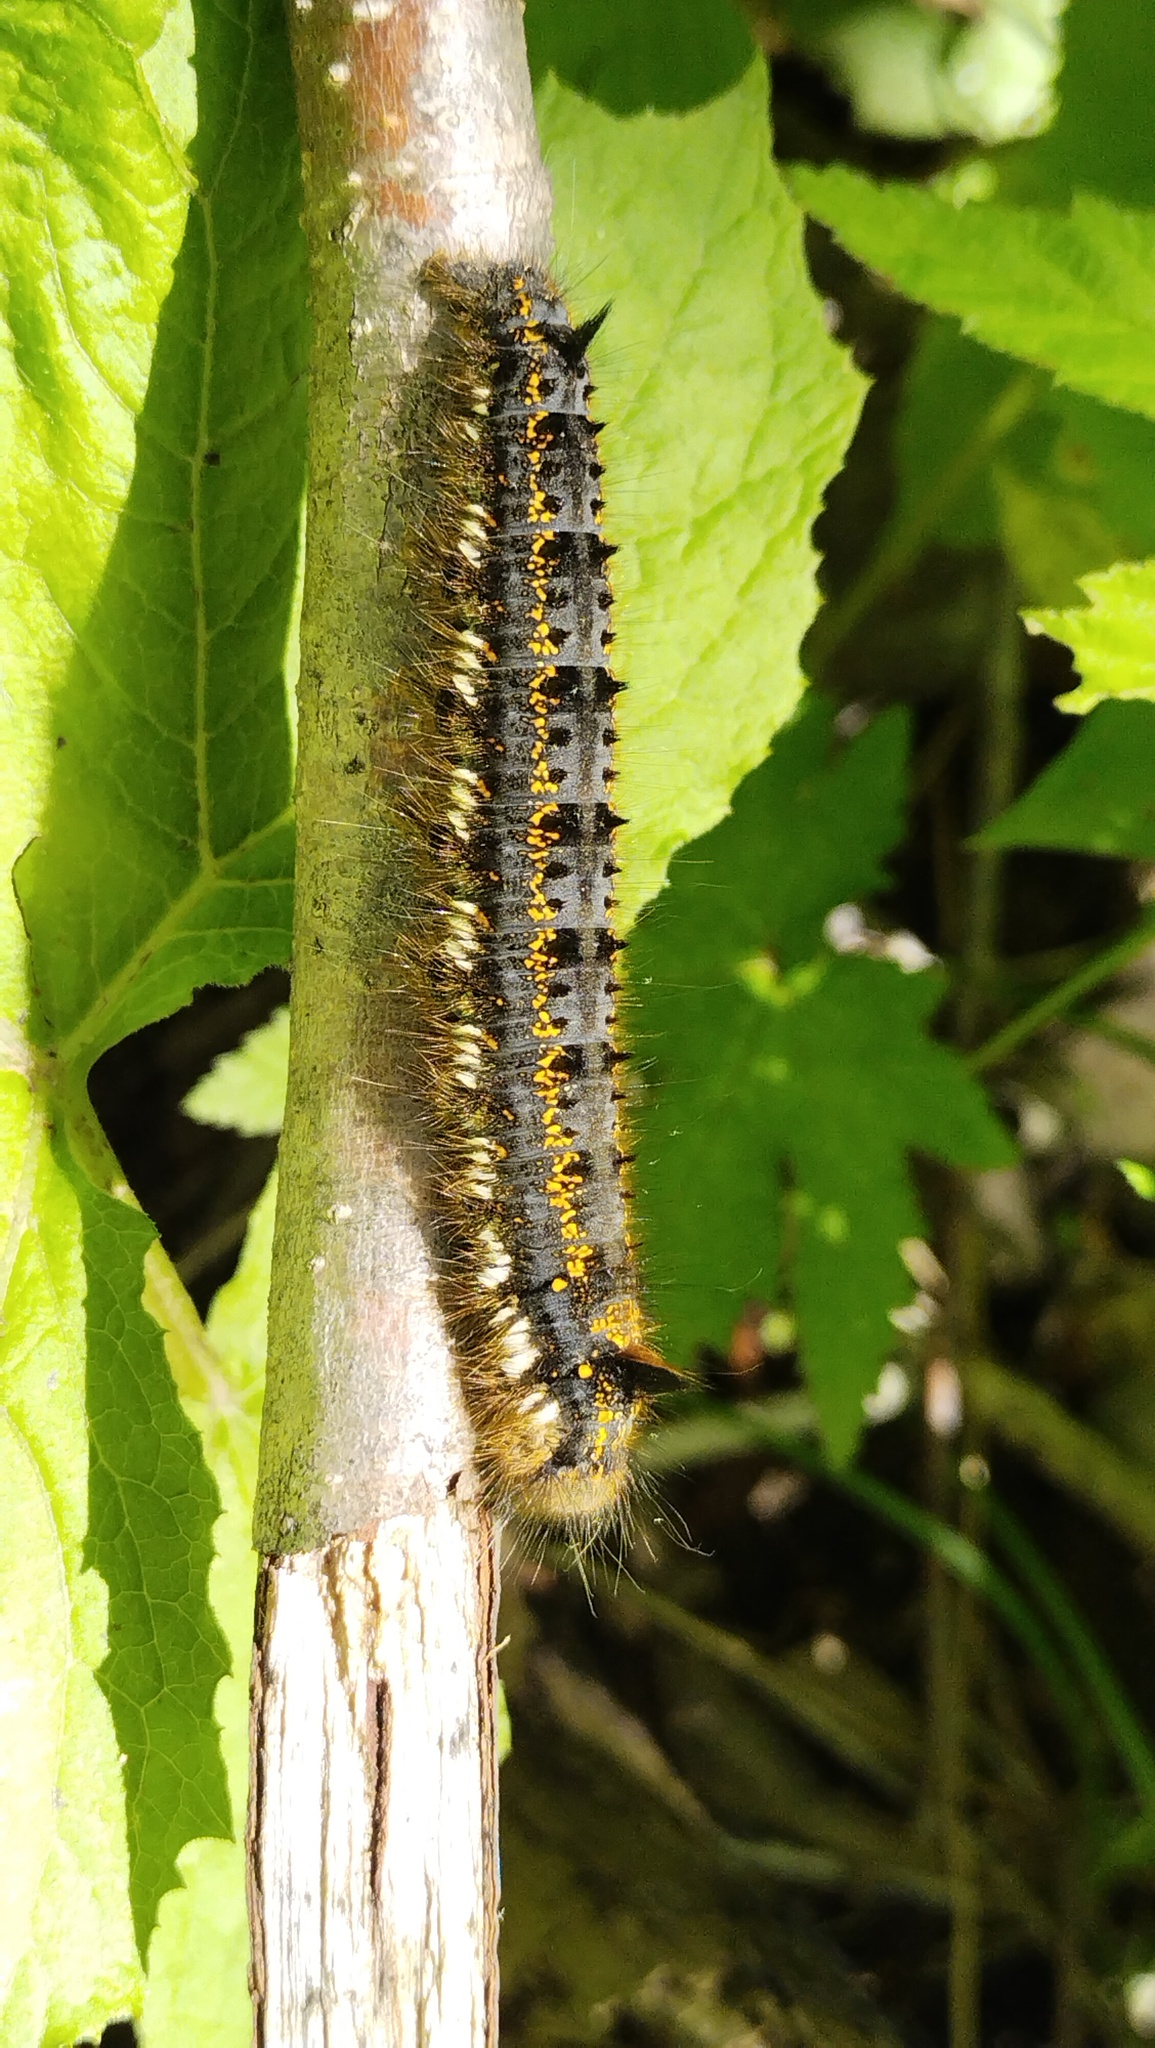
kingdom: Animalia
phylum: Arthropoda
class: Insecta
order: Lepidoptera
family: Lasiocampidae
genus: Euthrix
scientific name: Euthrix potatoria
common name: Drinker
